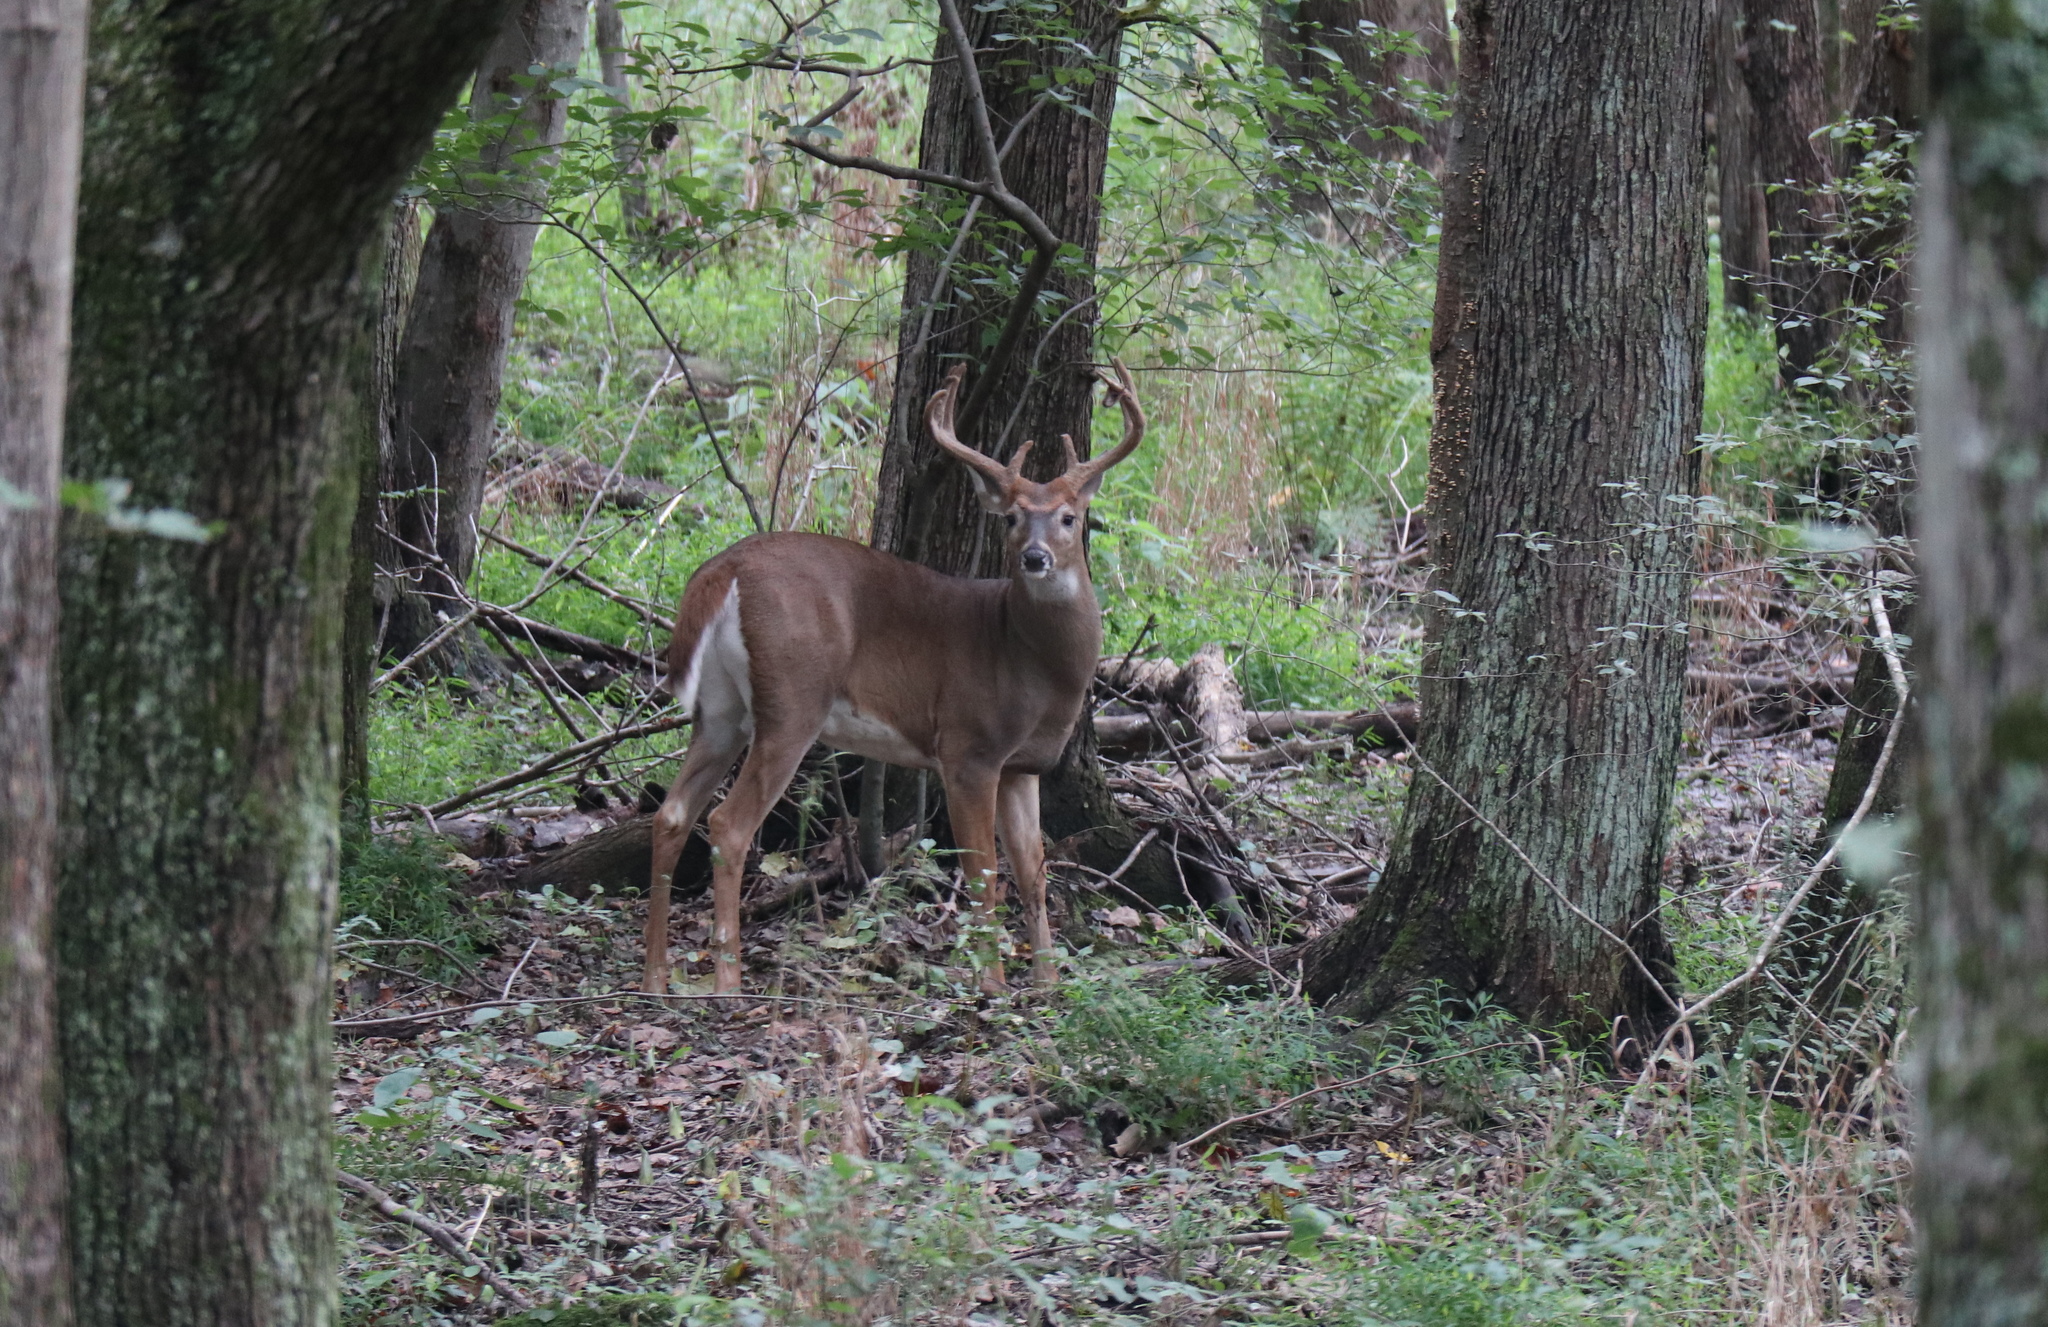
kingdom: Animalia
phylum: Chordata
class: Mammalia
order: Artiodactyla
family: Cervidae
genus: Odocoileus
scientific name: Odocoileus virginianus
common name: White-tailed deer
